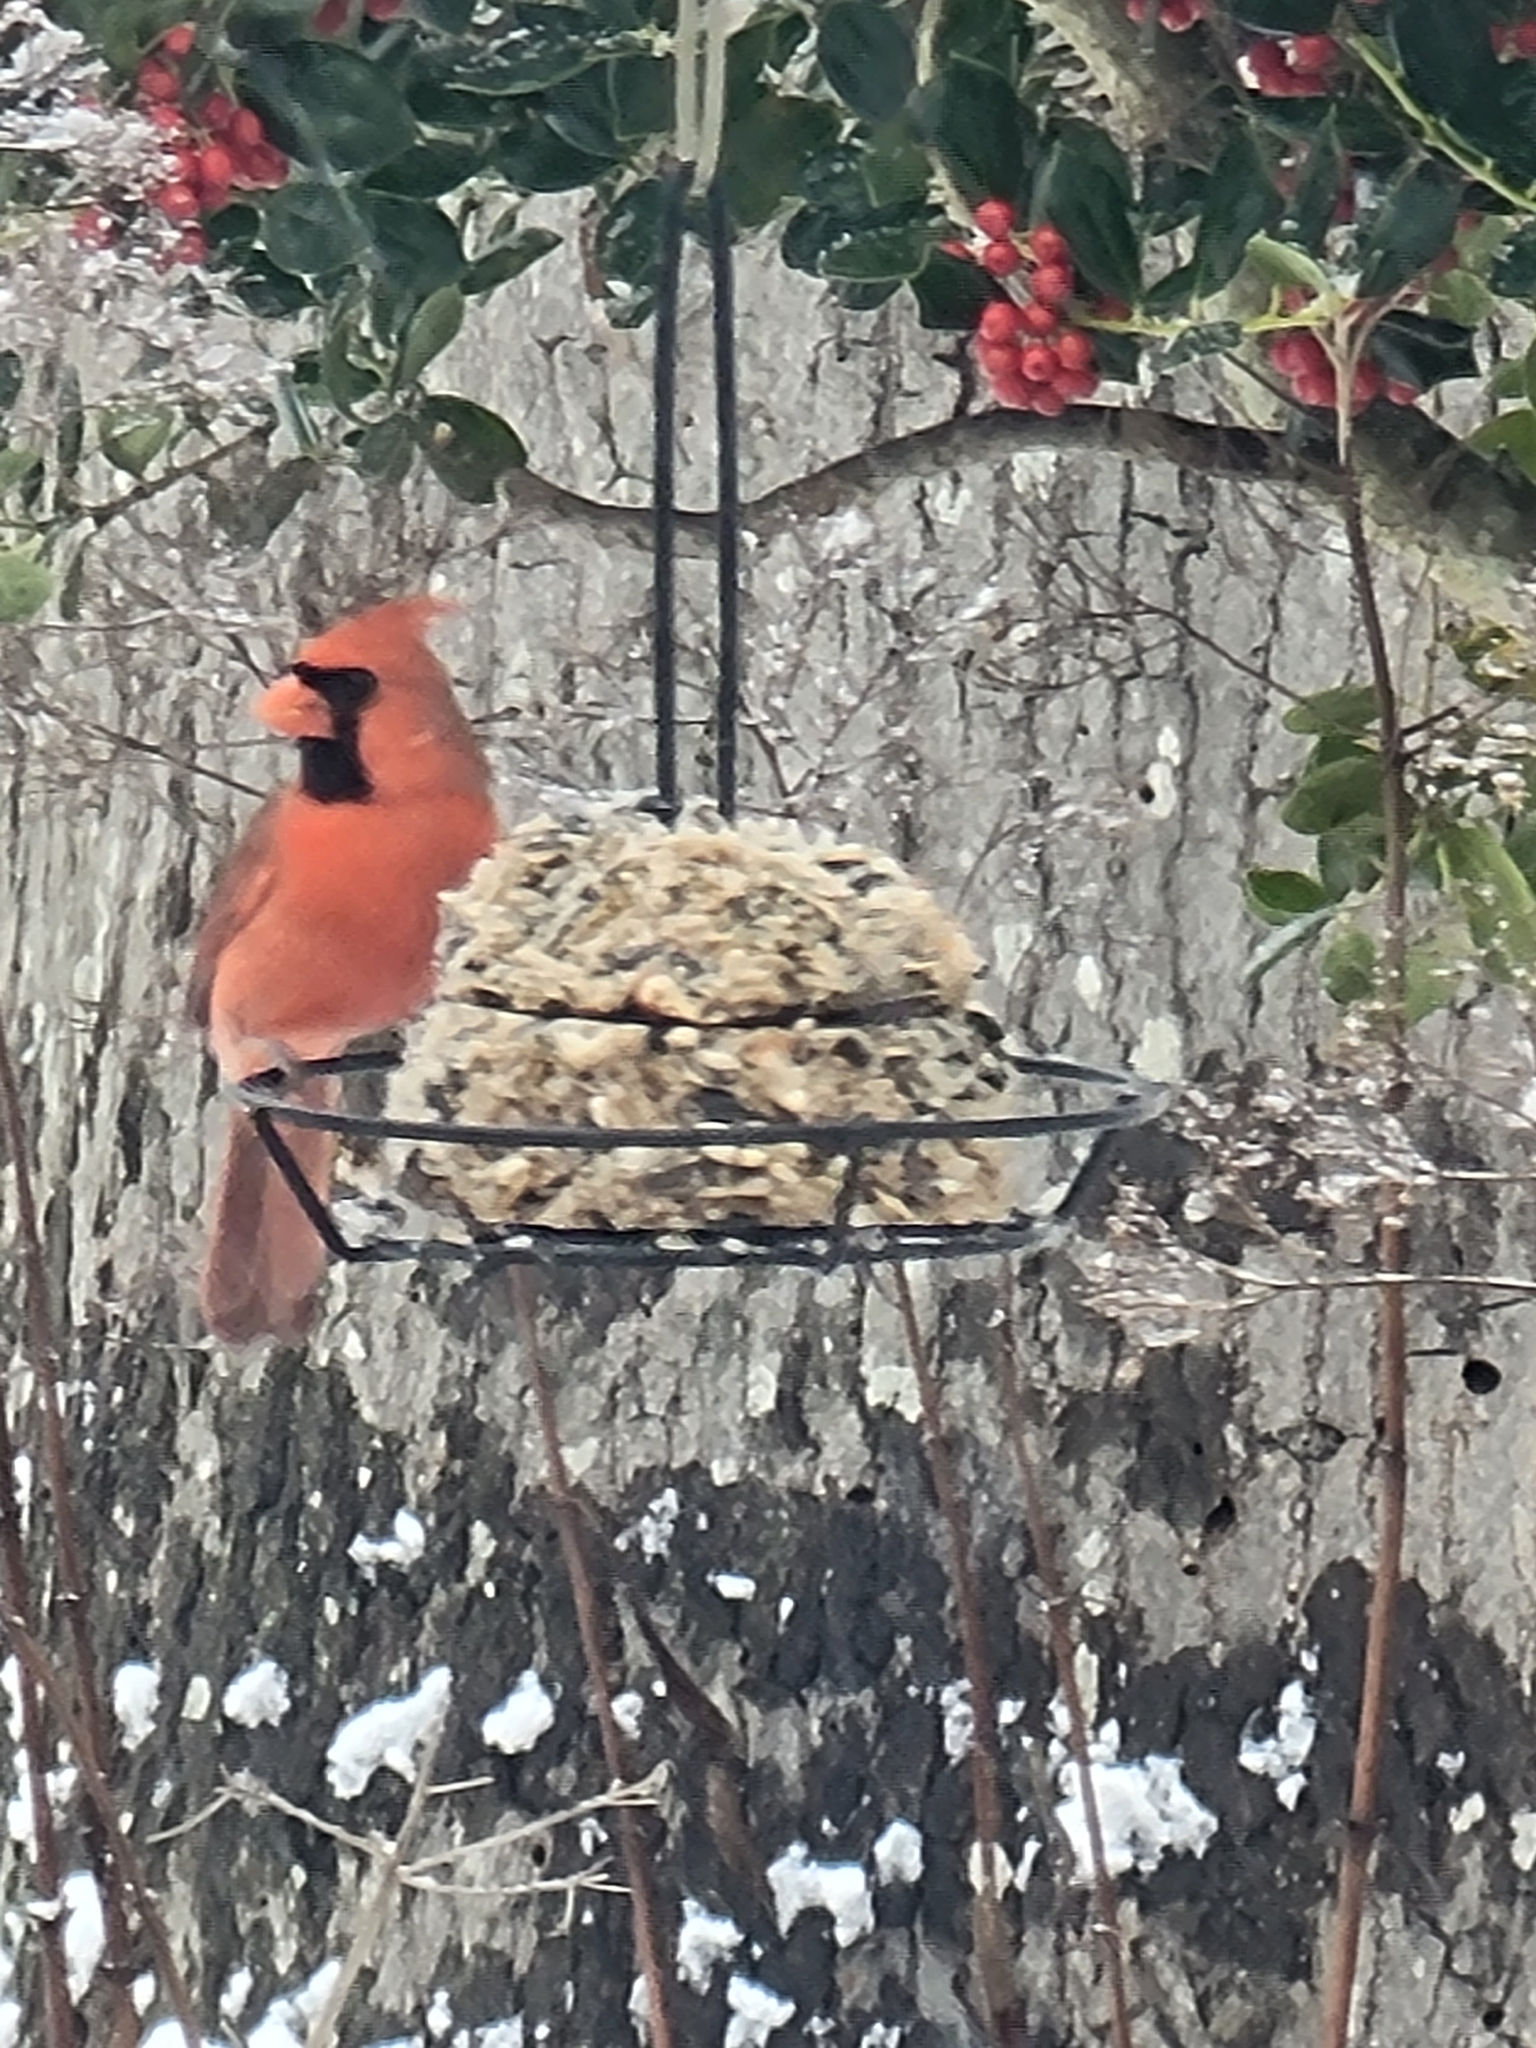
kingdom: Animalia
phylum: Chordata
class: Aves
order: Passeriformes
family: Cardinalidae
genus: Cardinalis
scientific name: Cardinalis cardinalis
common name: Northern cardinal
